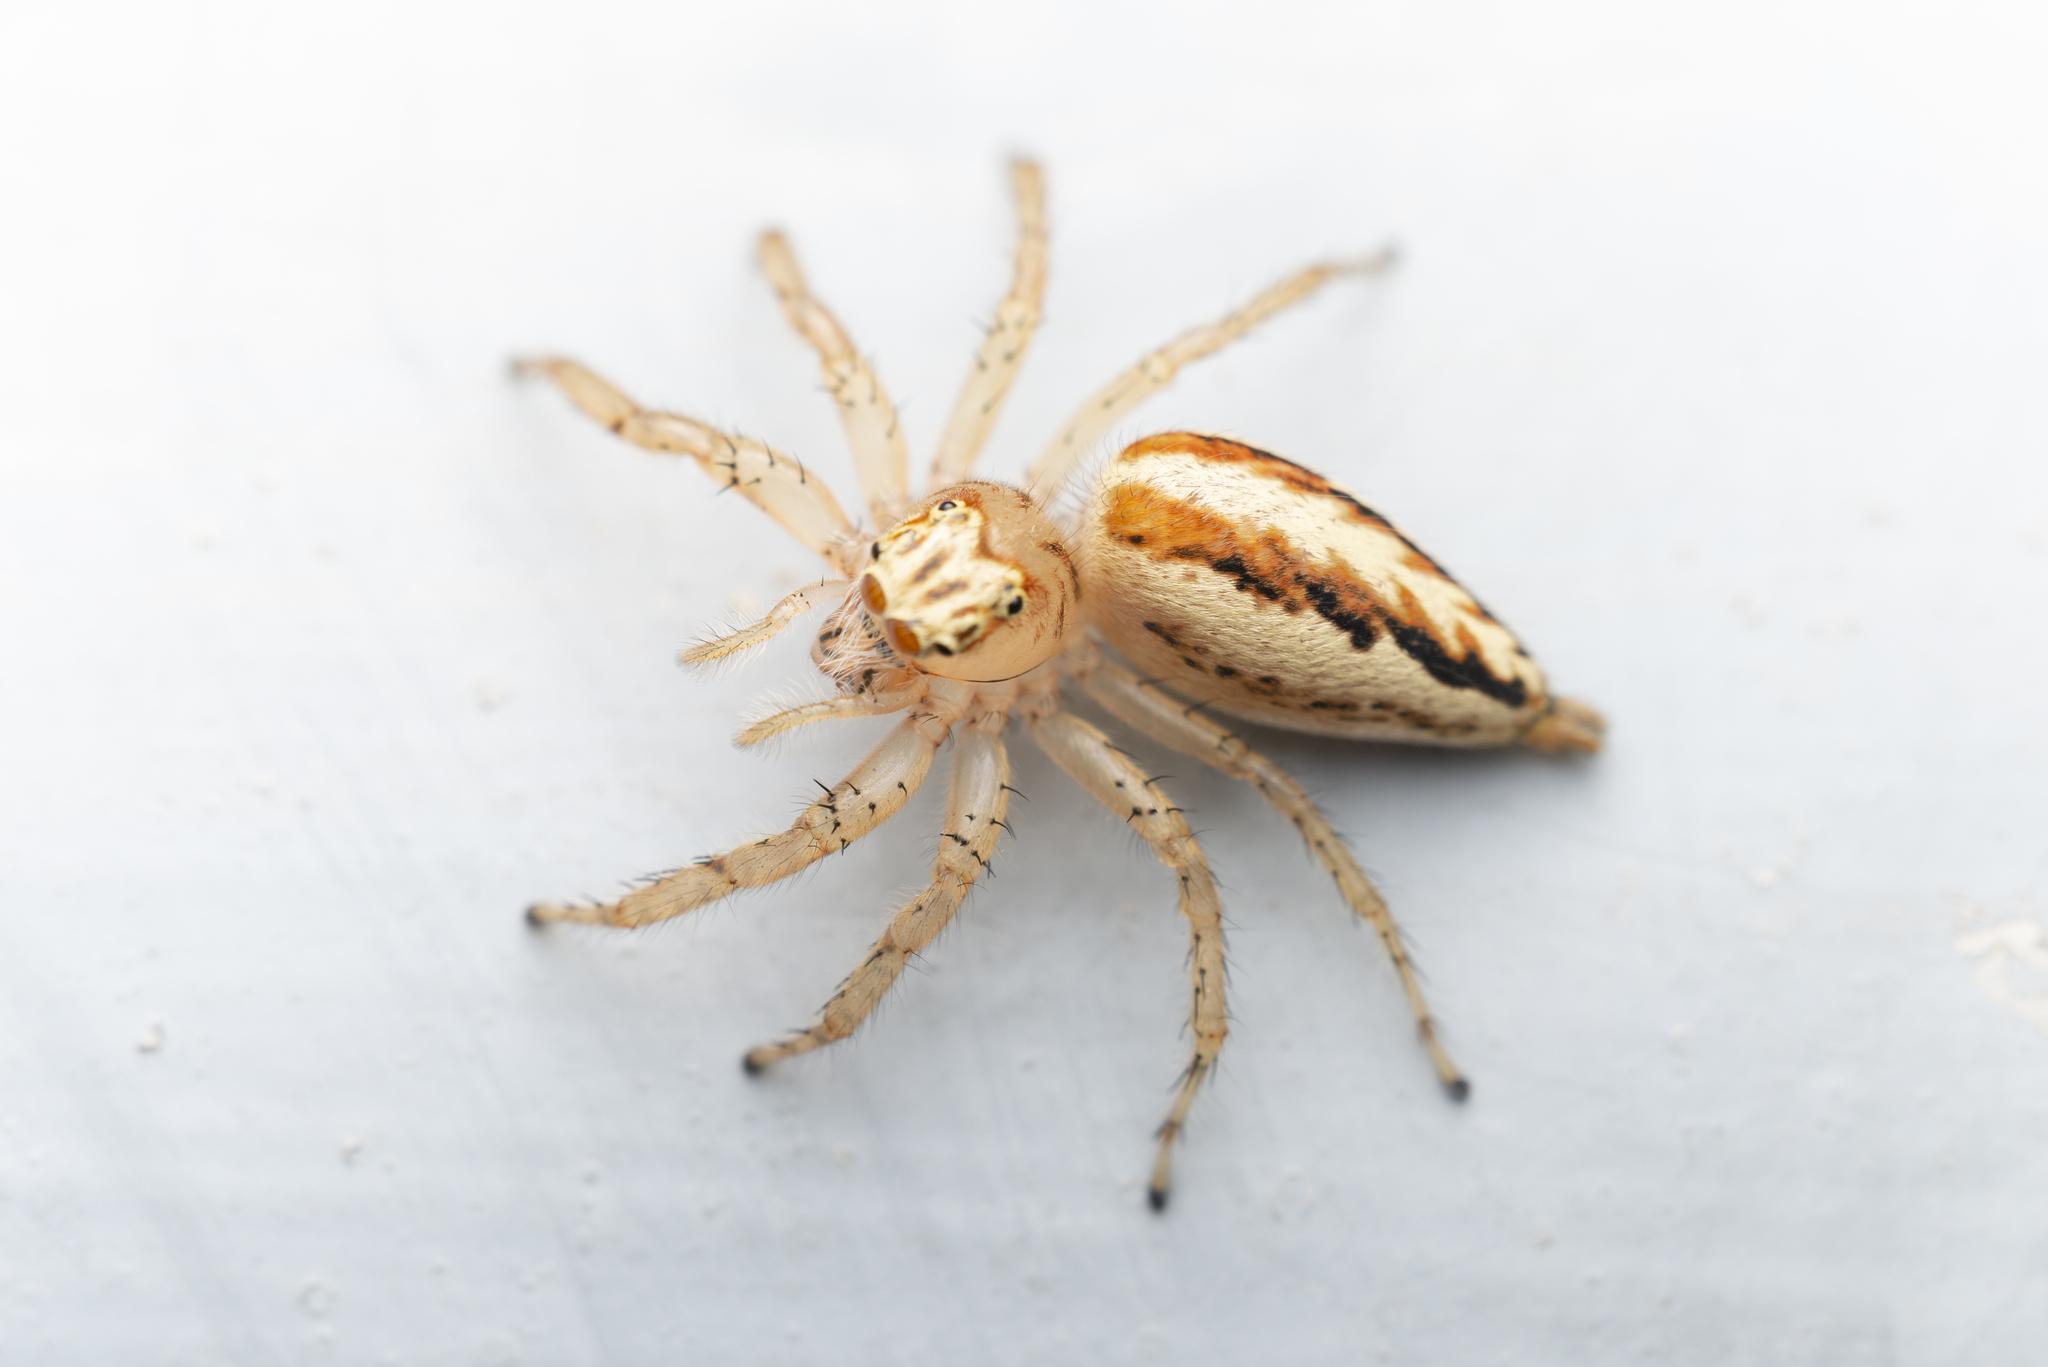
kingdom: Animalia
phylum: Arthropoda
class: Arachnida
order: Araneae
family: Salticidae
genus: Telamonia
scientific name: Telamonia caprina
